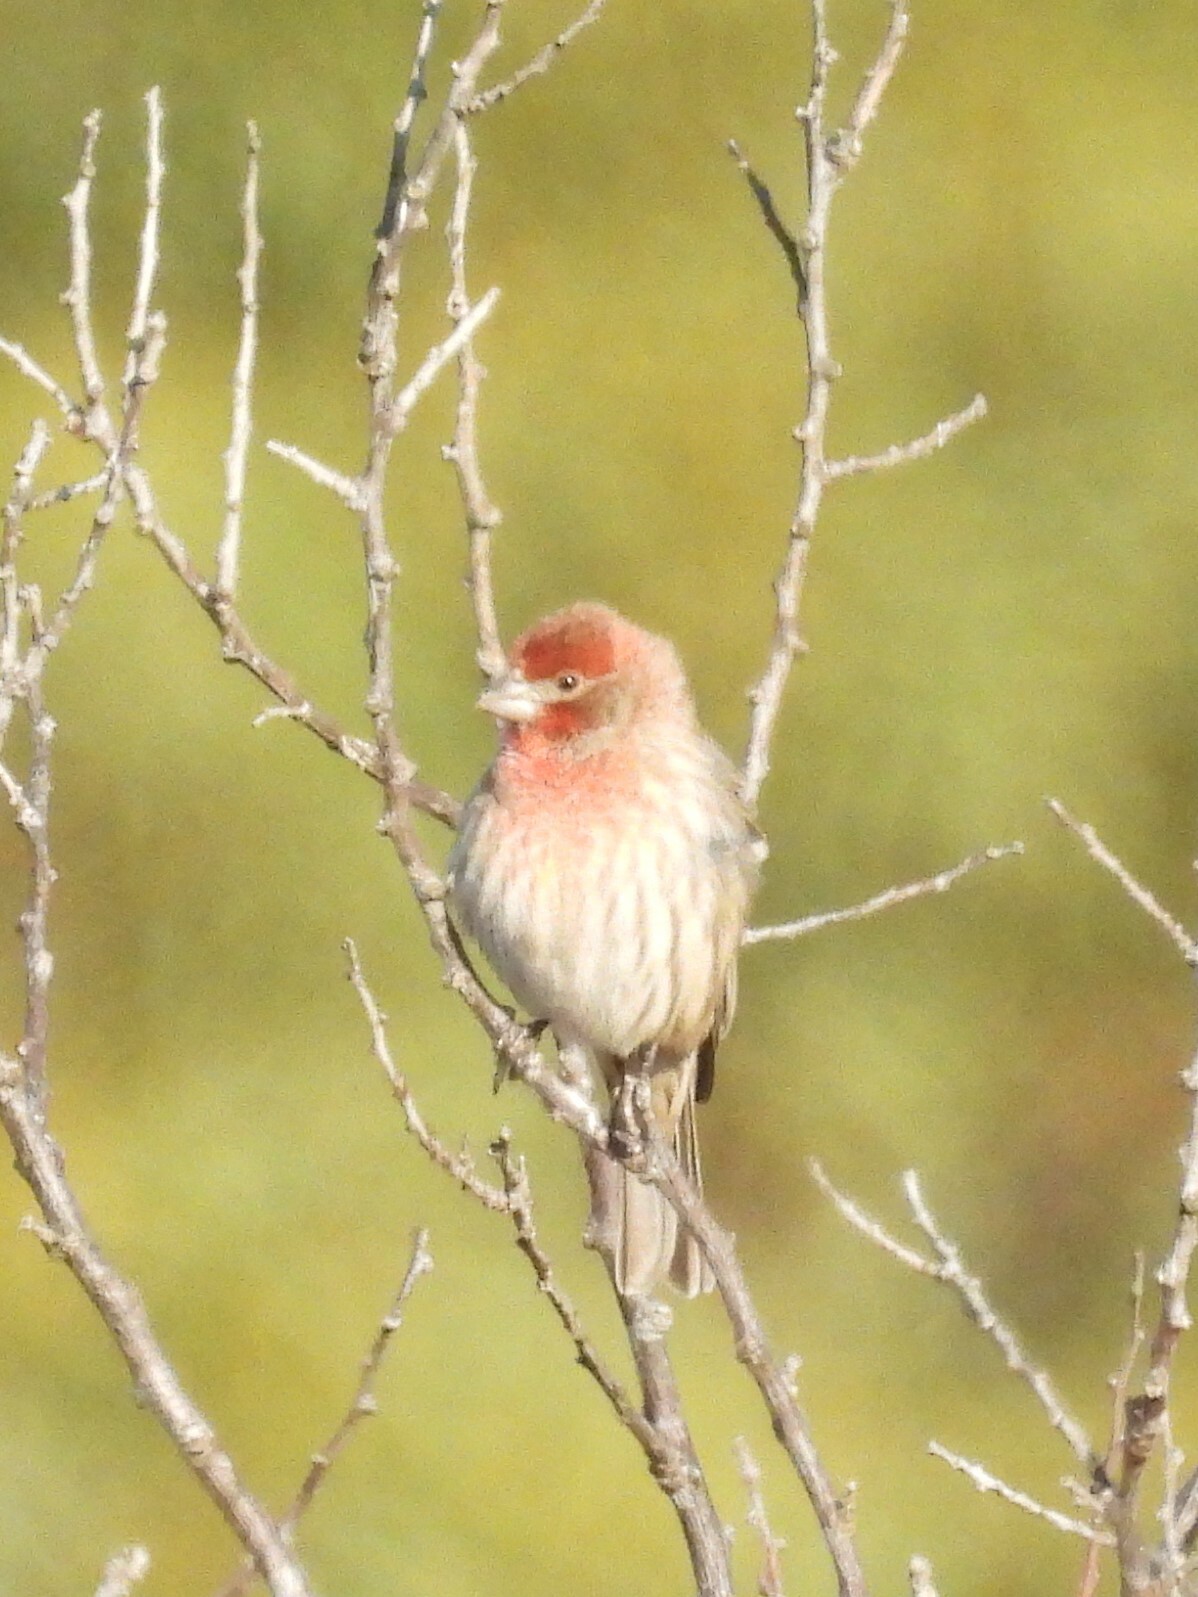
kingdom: Animalia
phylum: Chordata
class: Aves
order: Passeriformes
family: Fringillidae
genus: Haemorhous
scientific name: Haemorhous mexicanus
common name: House finch
